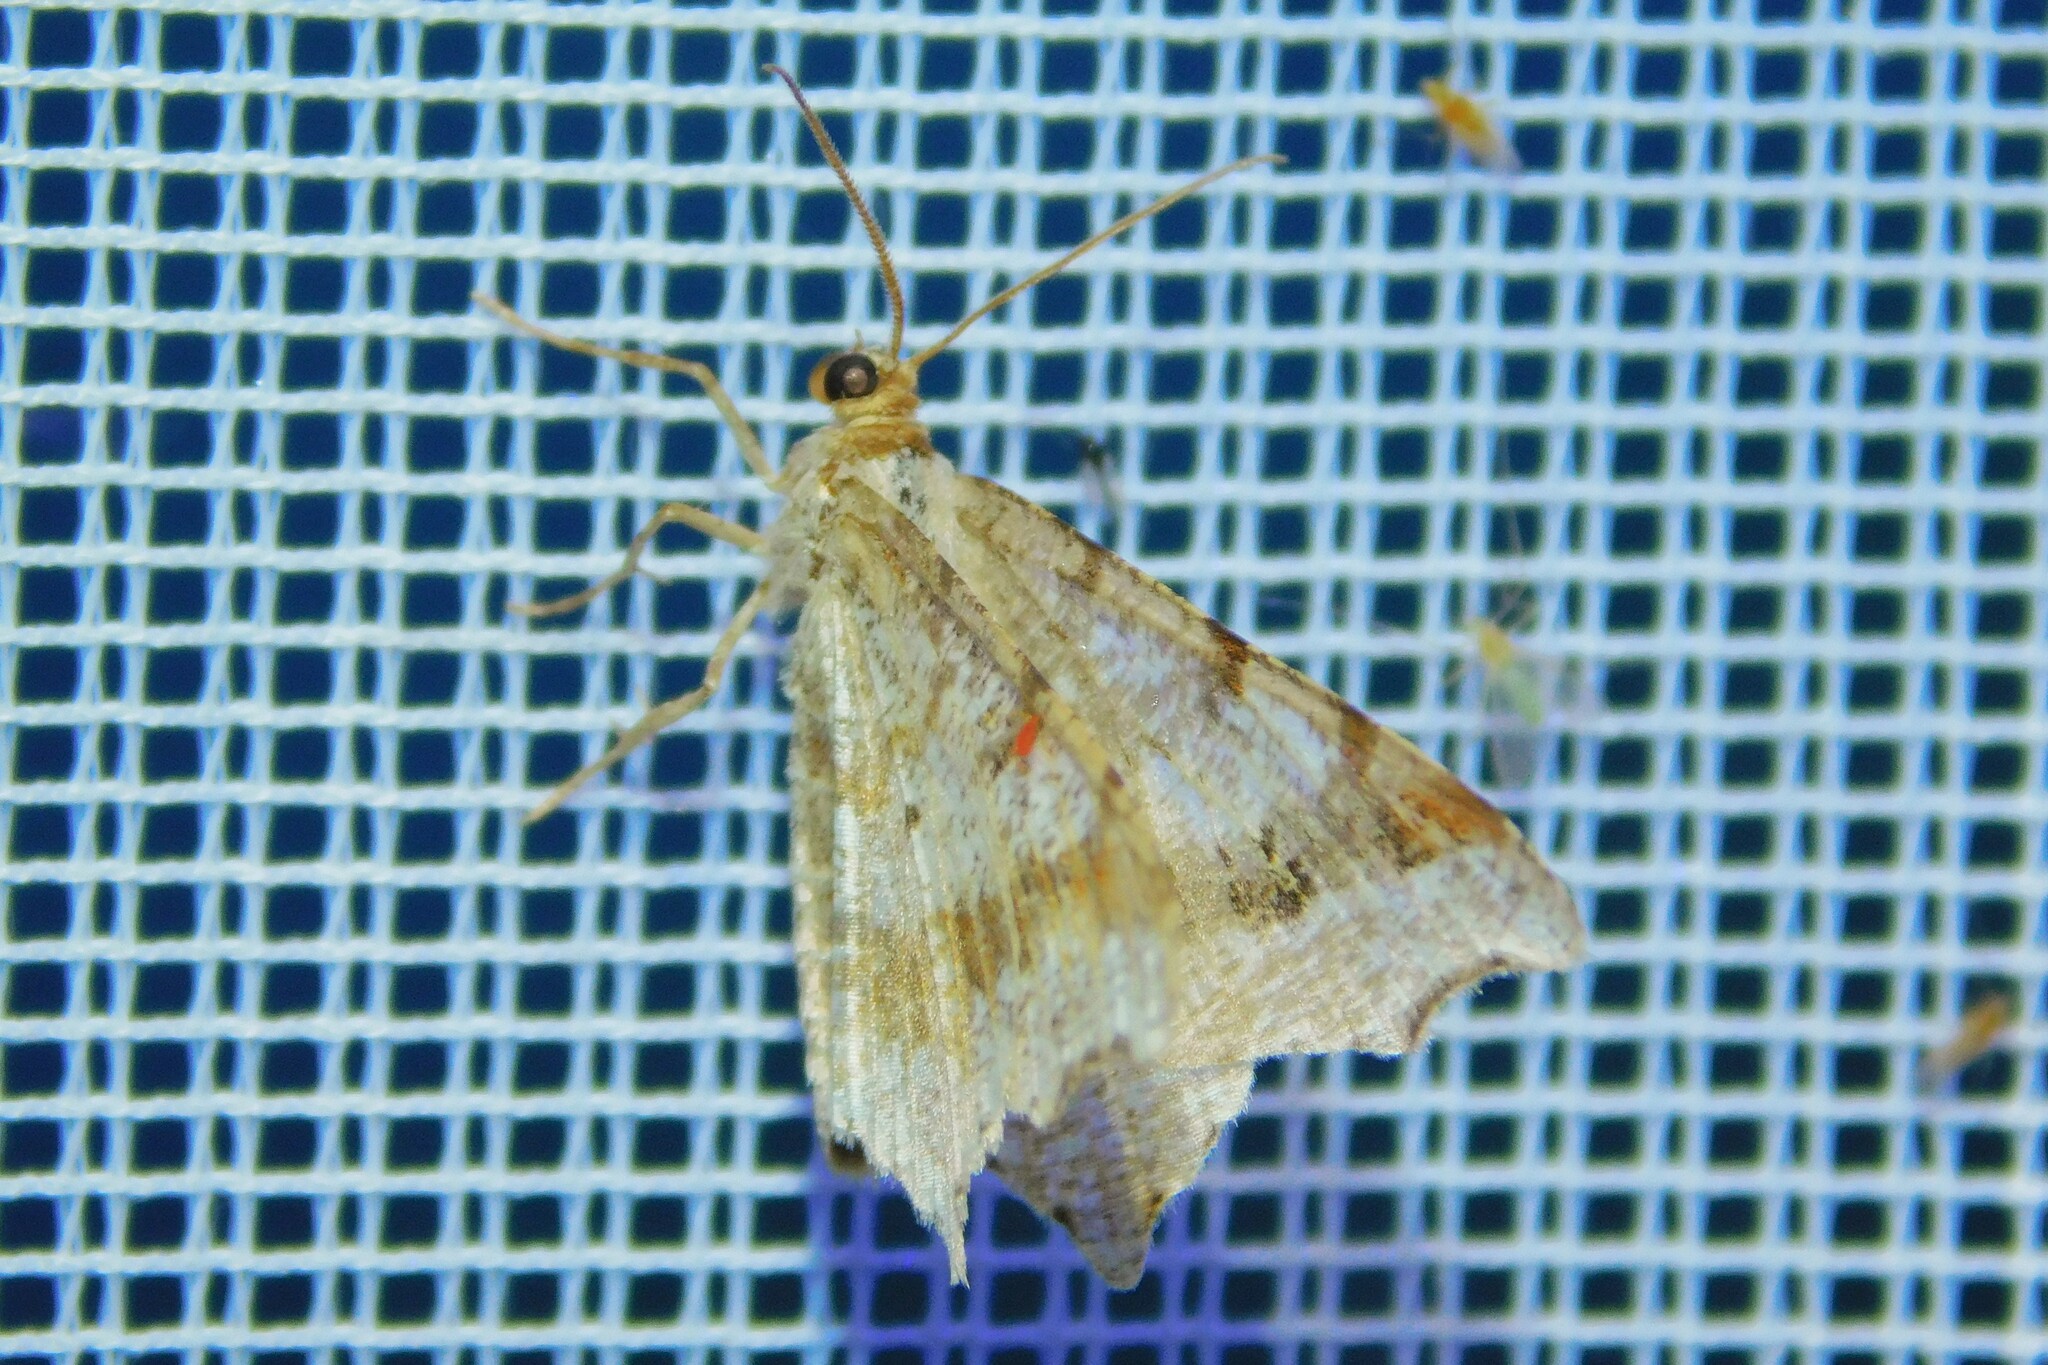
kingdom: Animalia
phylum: Arthropoda
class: Insecta
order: Lepidoptera
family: Geometridae
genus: Macaria
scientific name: Macaria alternata
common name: Sharp-angled peacock
